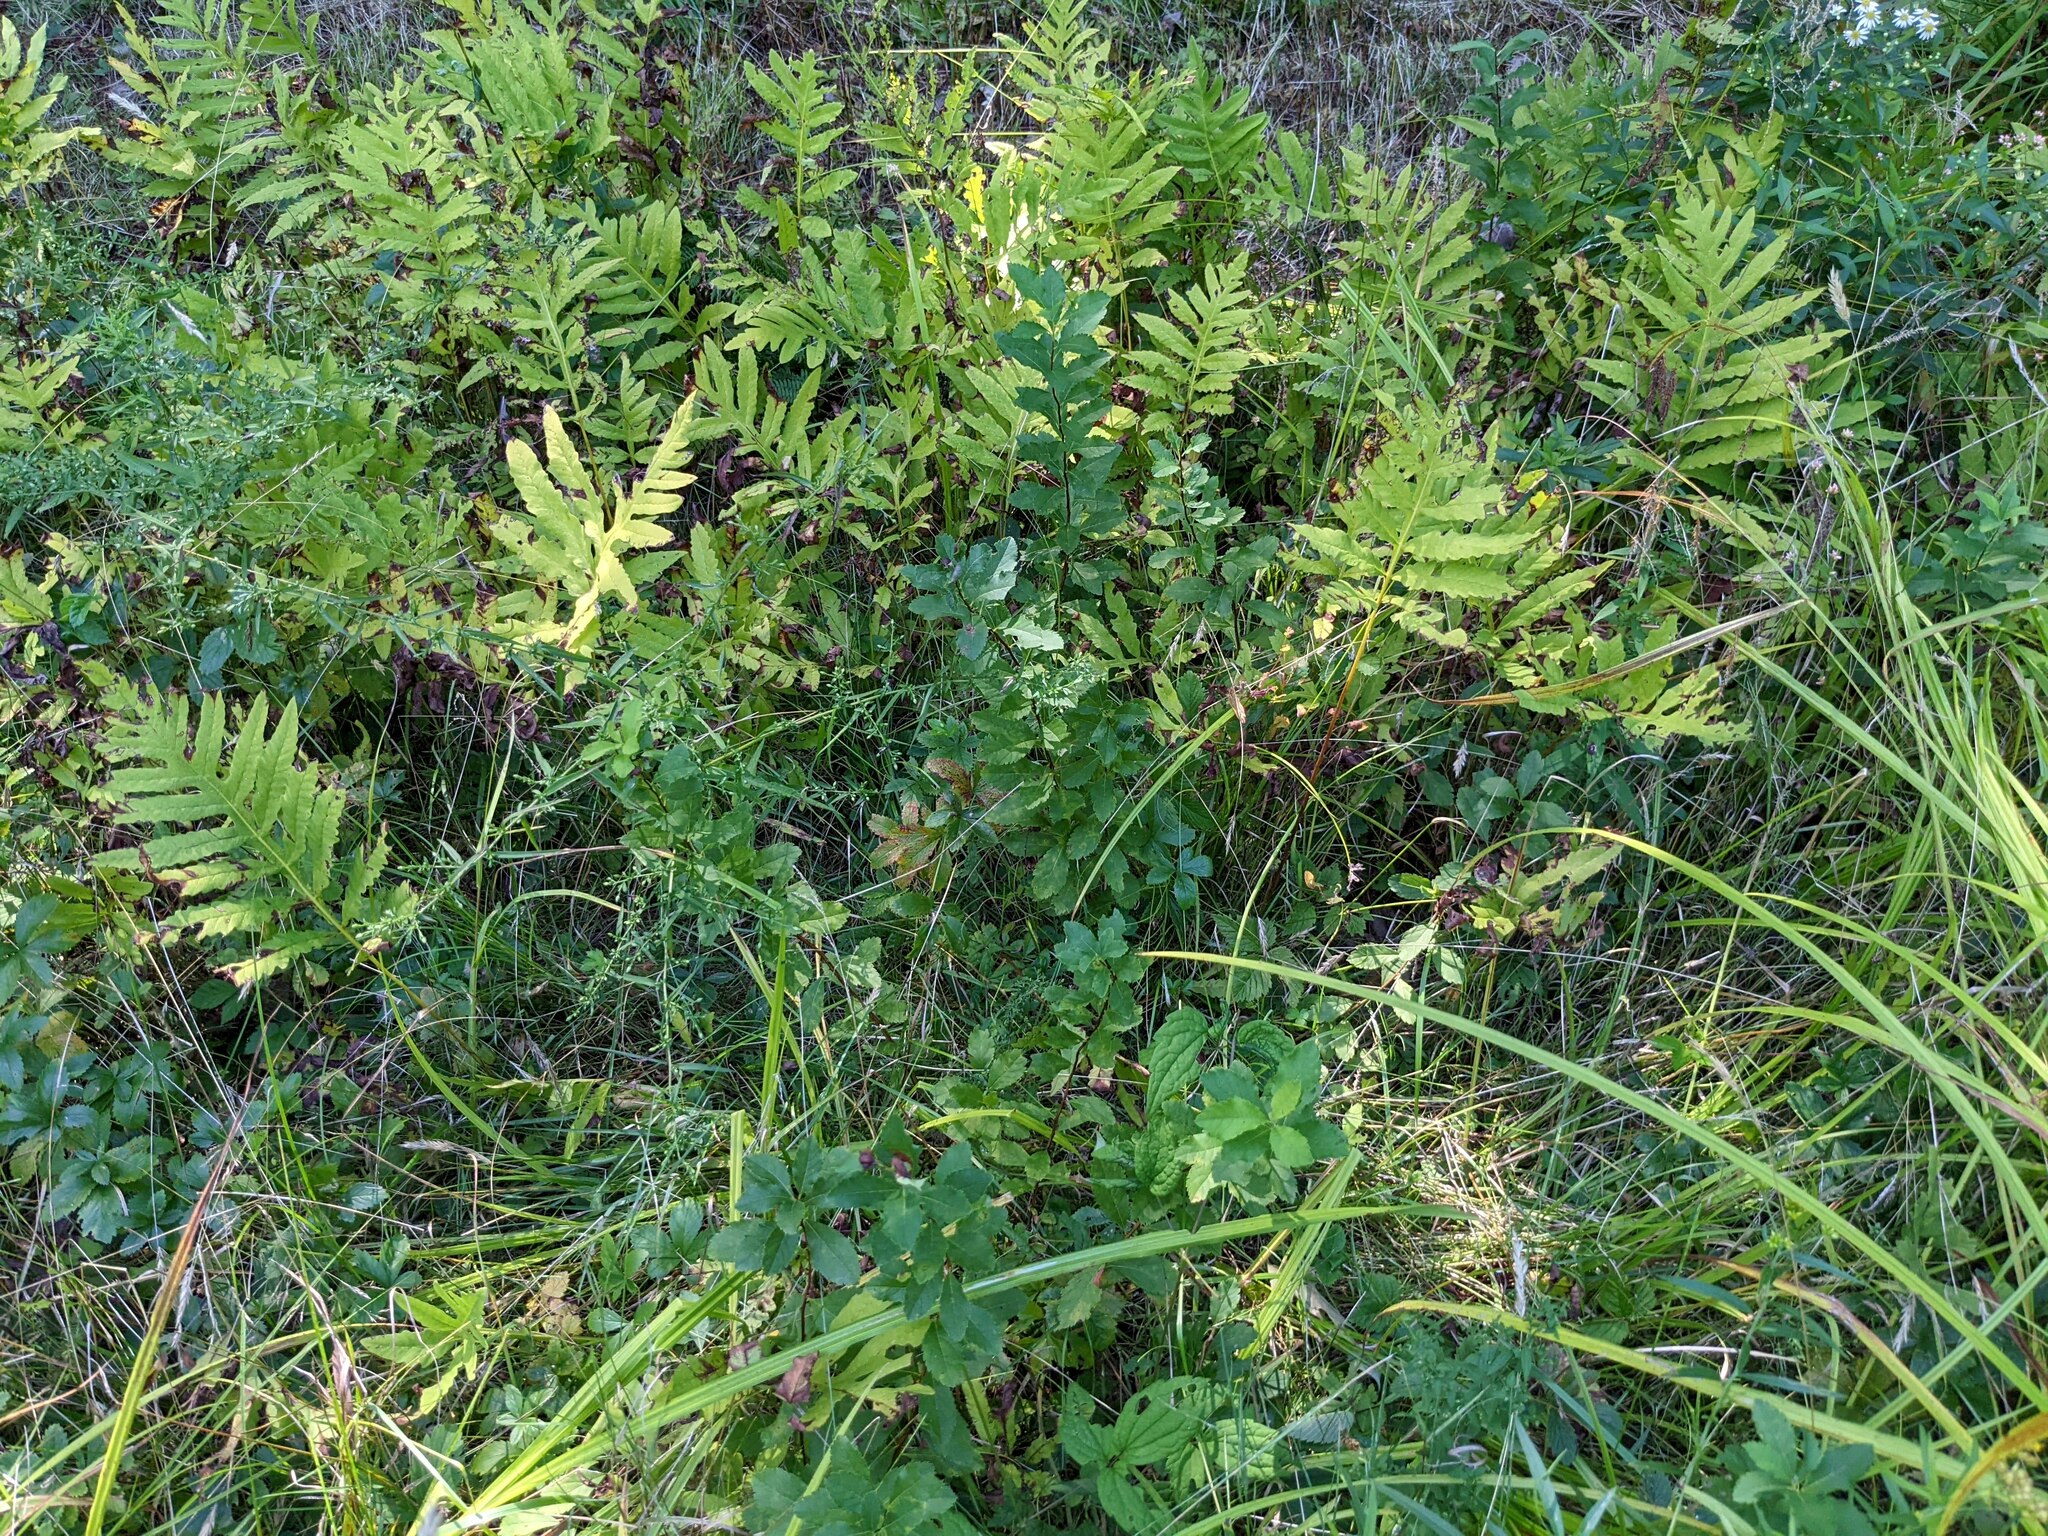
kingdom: Plantae
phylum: Tracheophyta
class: Magnoliopsida
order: Rosales
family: Rosaceae
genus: Spiraea
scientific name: Spiraea alba
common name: Pale bridewort
